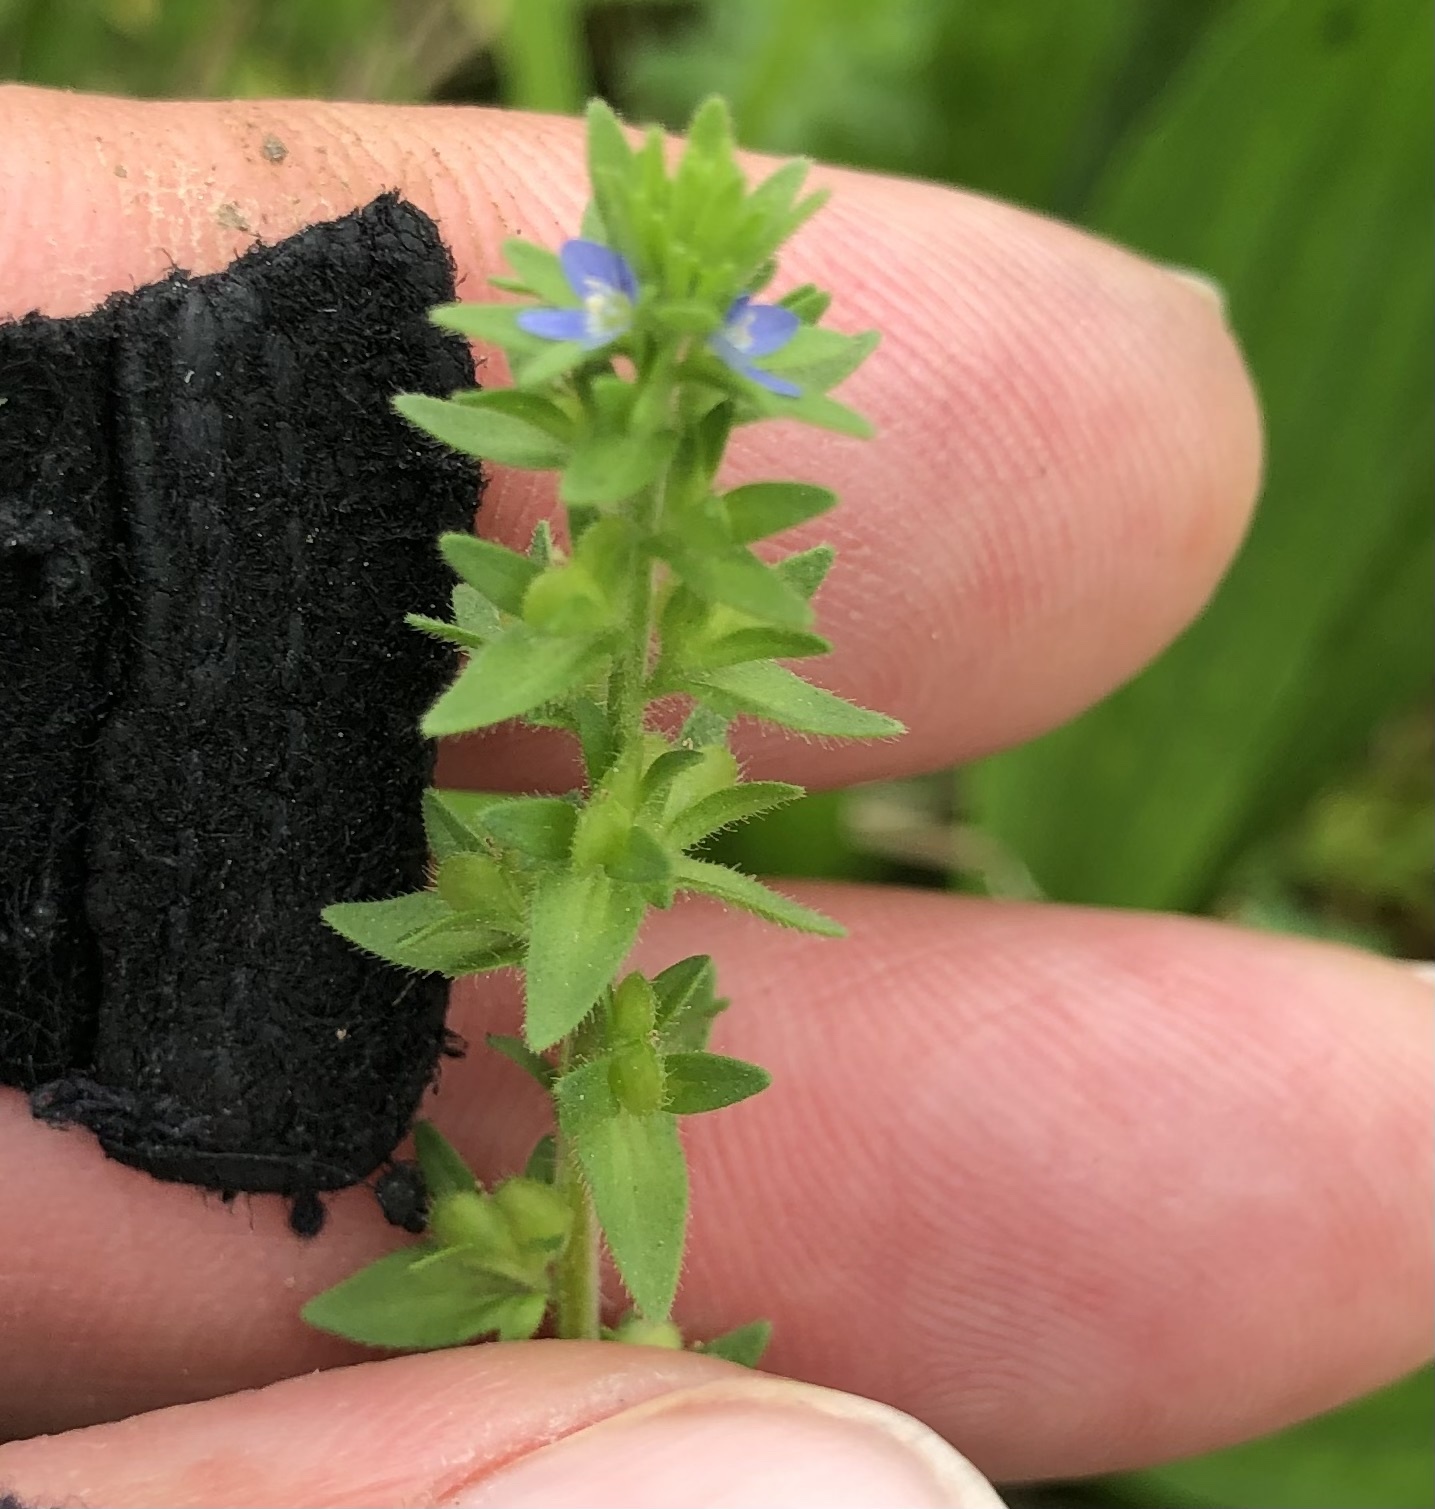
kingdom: Plantae
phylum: Tracheophyta
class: Magnoliopsida
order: Lamiales
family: Plantaginaceae
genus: Veronica
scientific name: Veronica arvensis
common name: Corn speedwell
